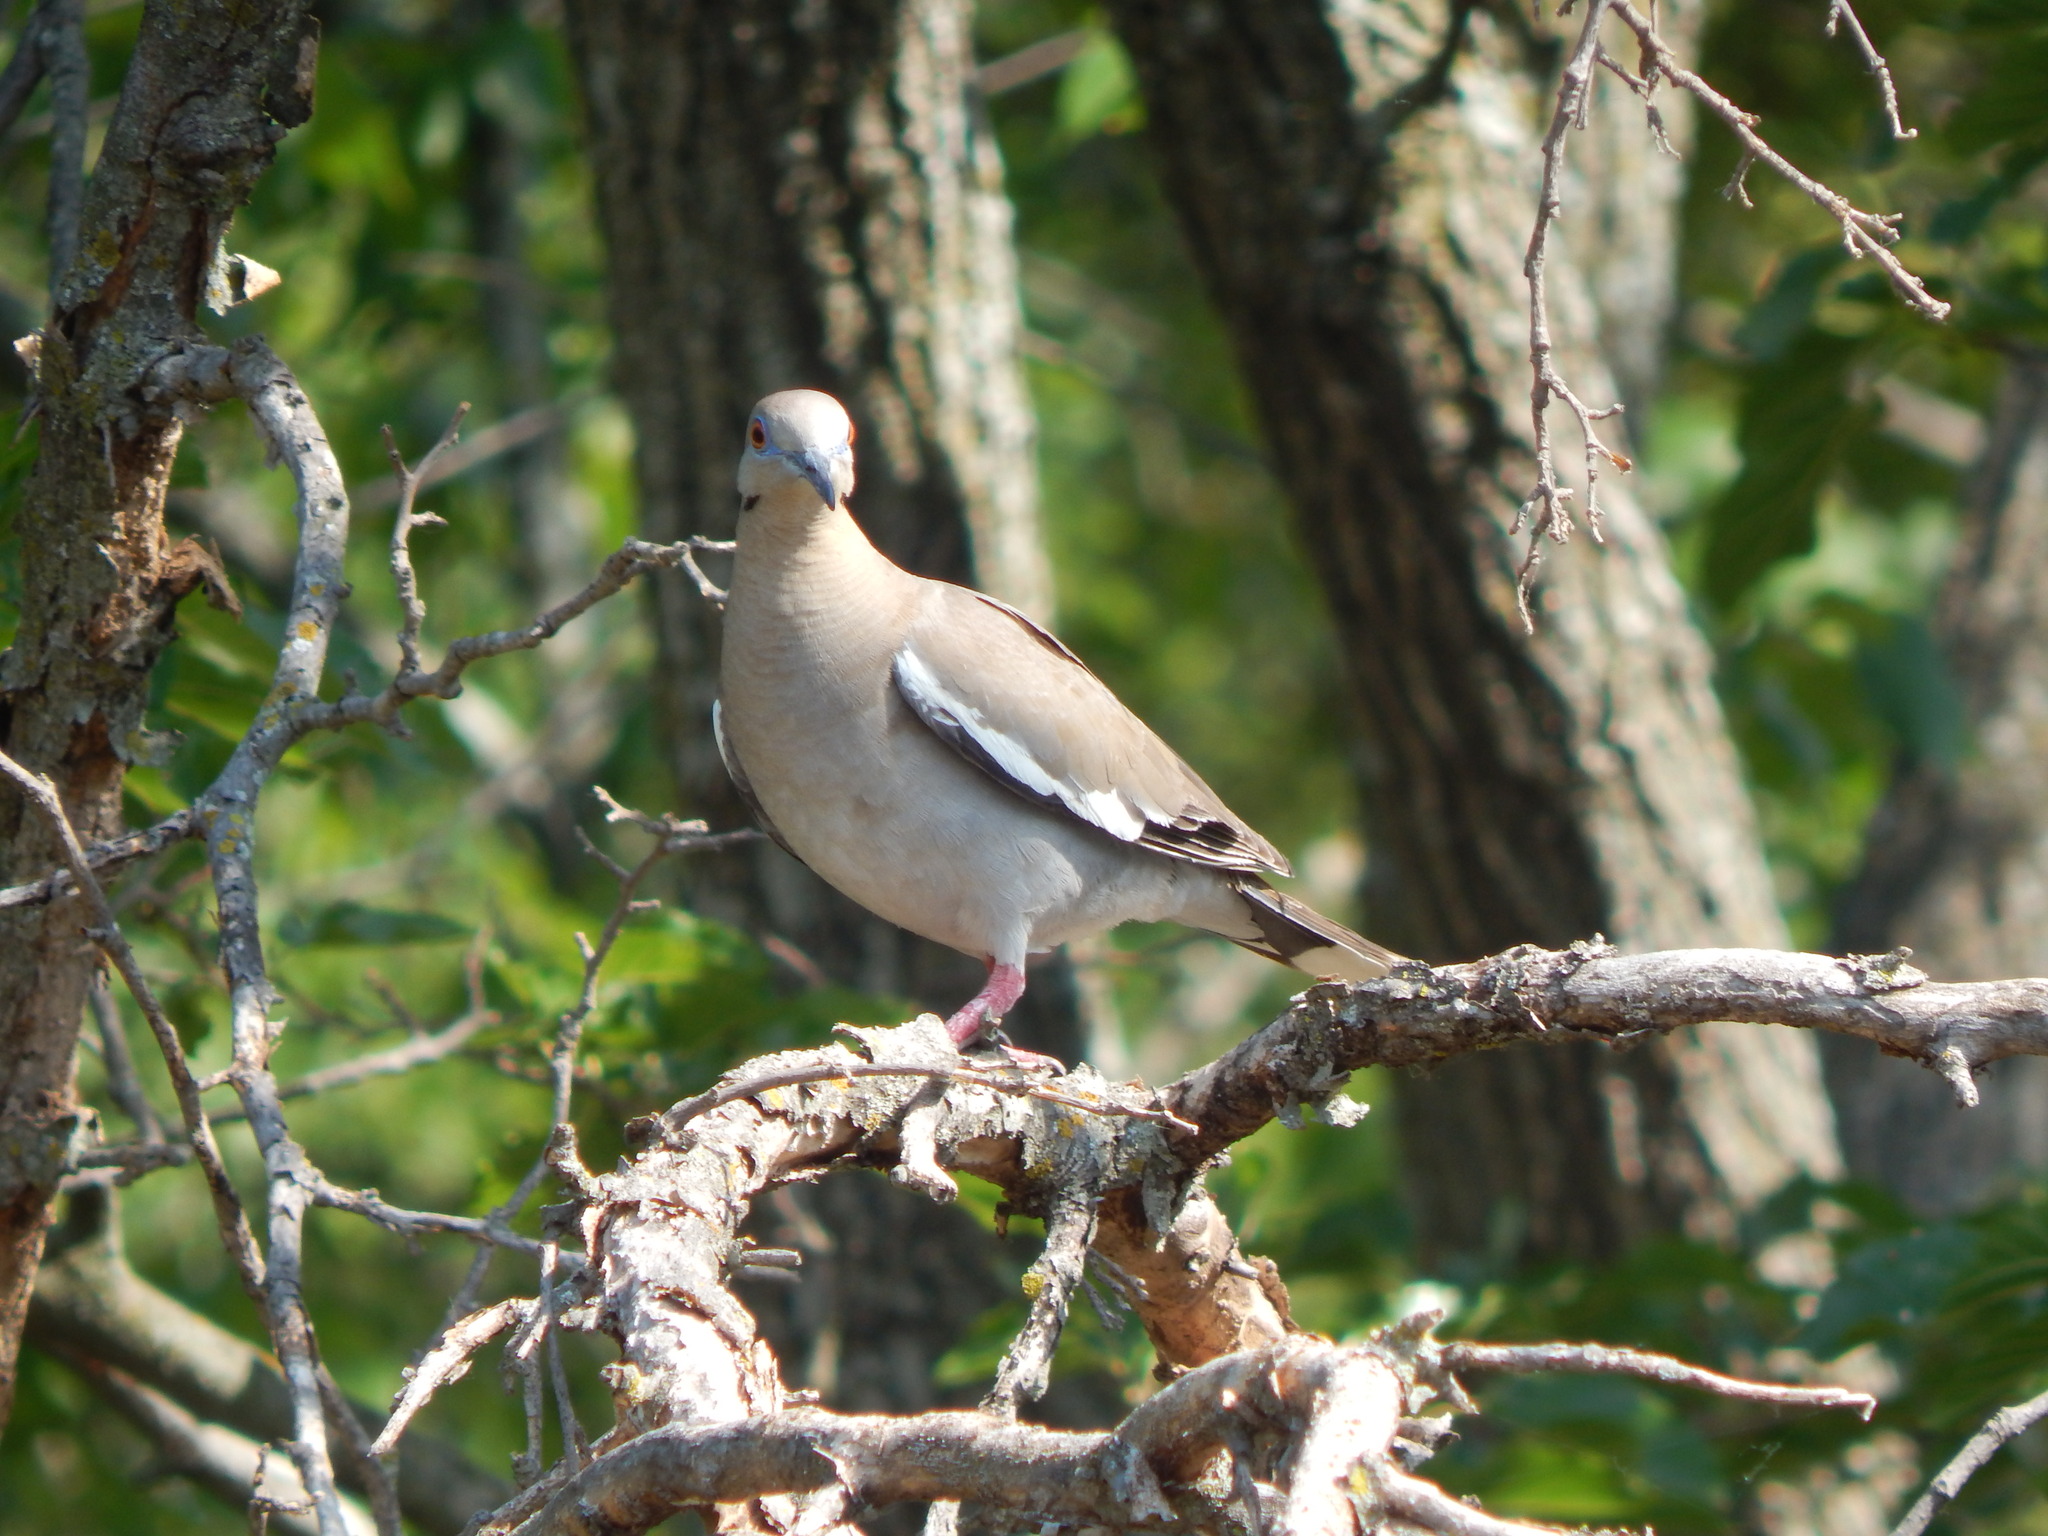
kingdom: Animalia
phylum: Chordata
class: Aves
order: Columbiformes
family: Columbidae
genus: Zenaida
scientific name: Zenaida asiatica
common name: White-winged dove
